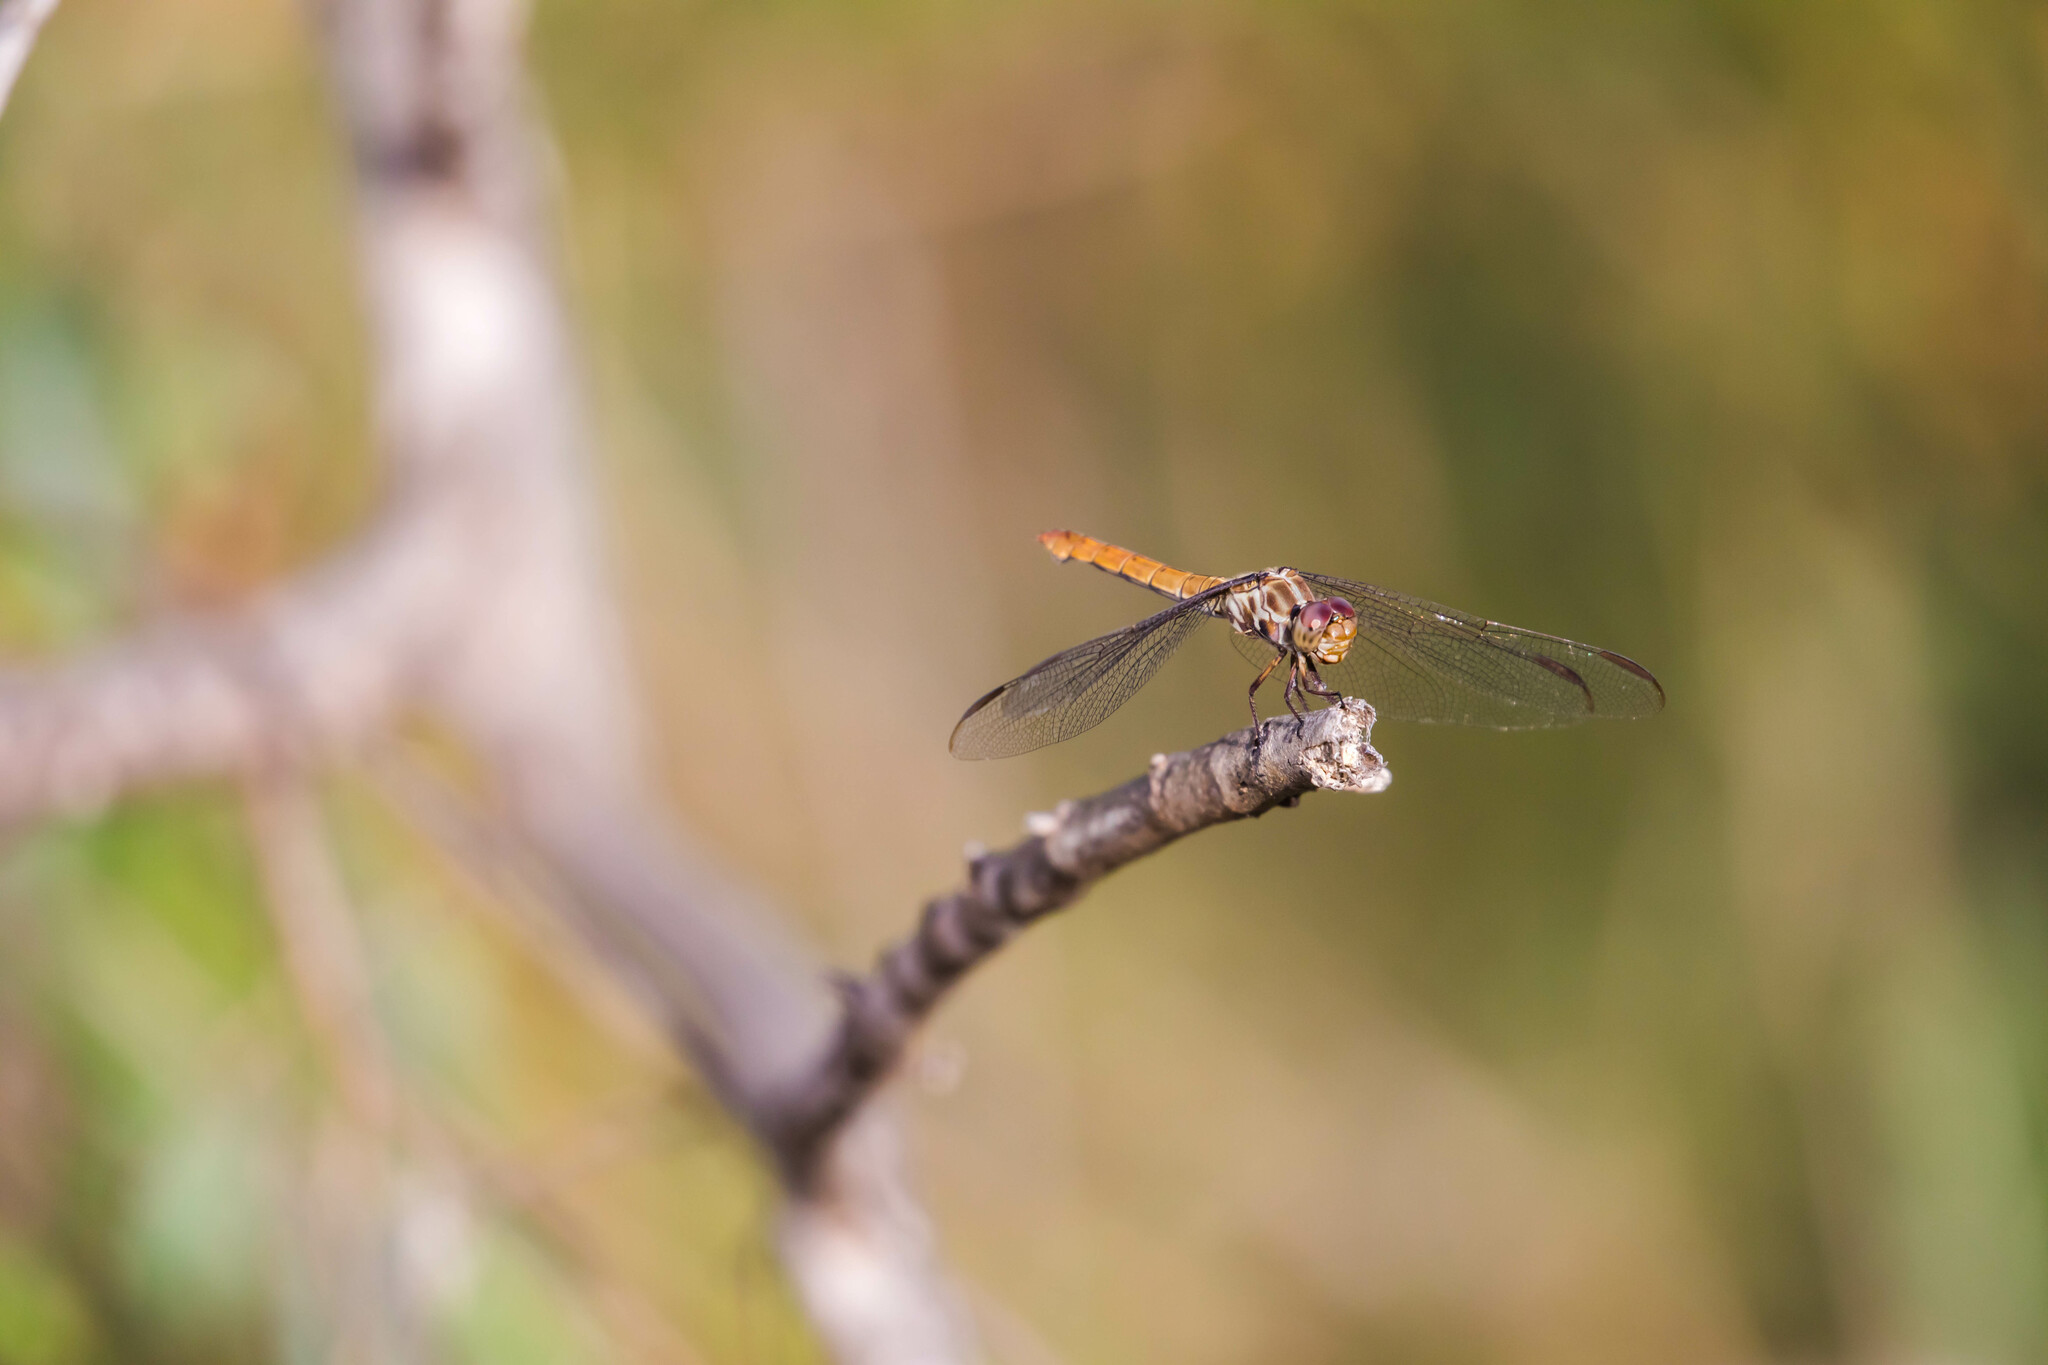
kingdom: Animalia
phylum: Arthropoda
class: Insecta
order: Odonata
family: Libellulidae
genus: Orthemis
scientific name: Orthemis ferruginea
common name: Roseate skimmer
